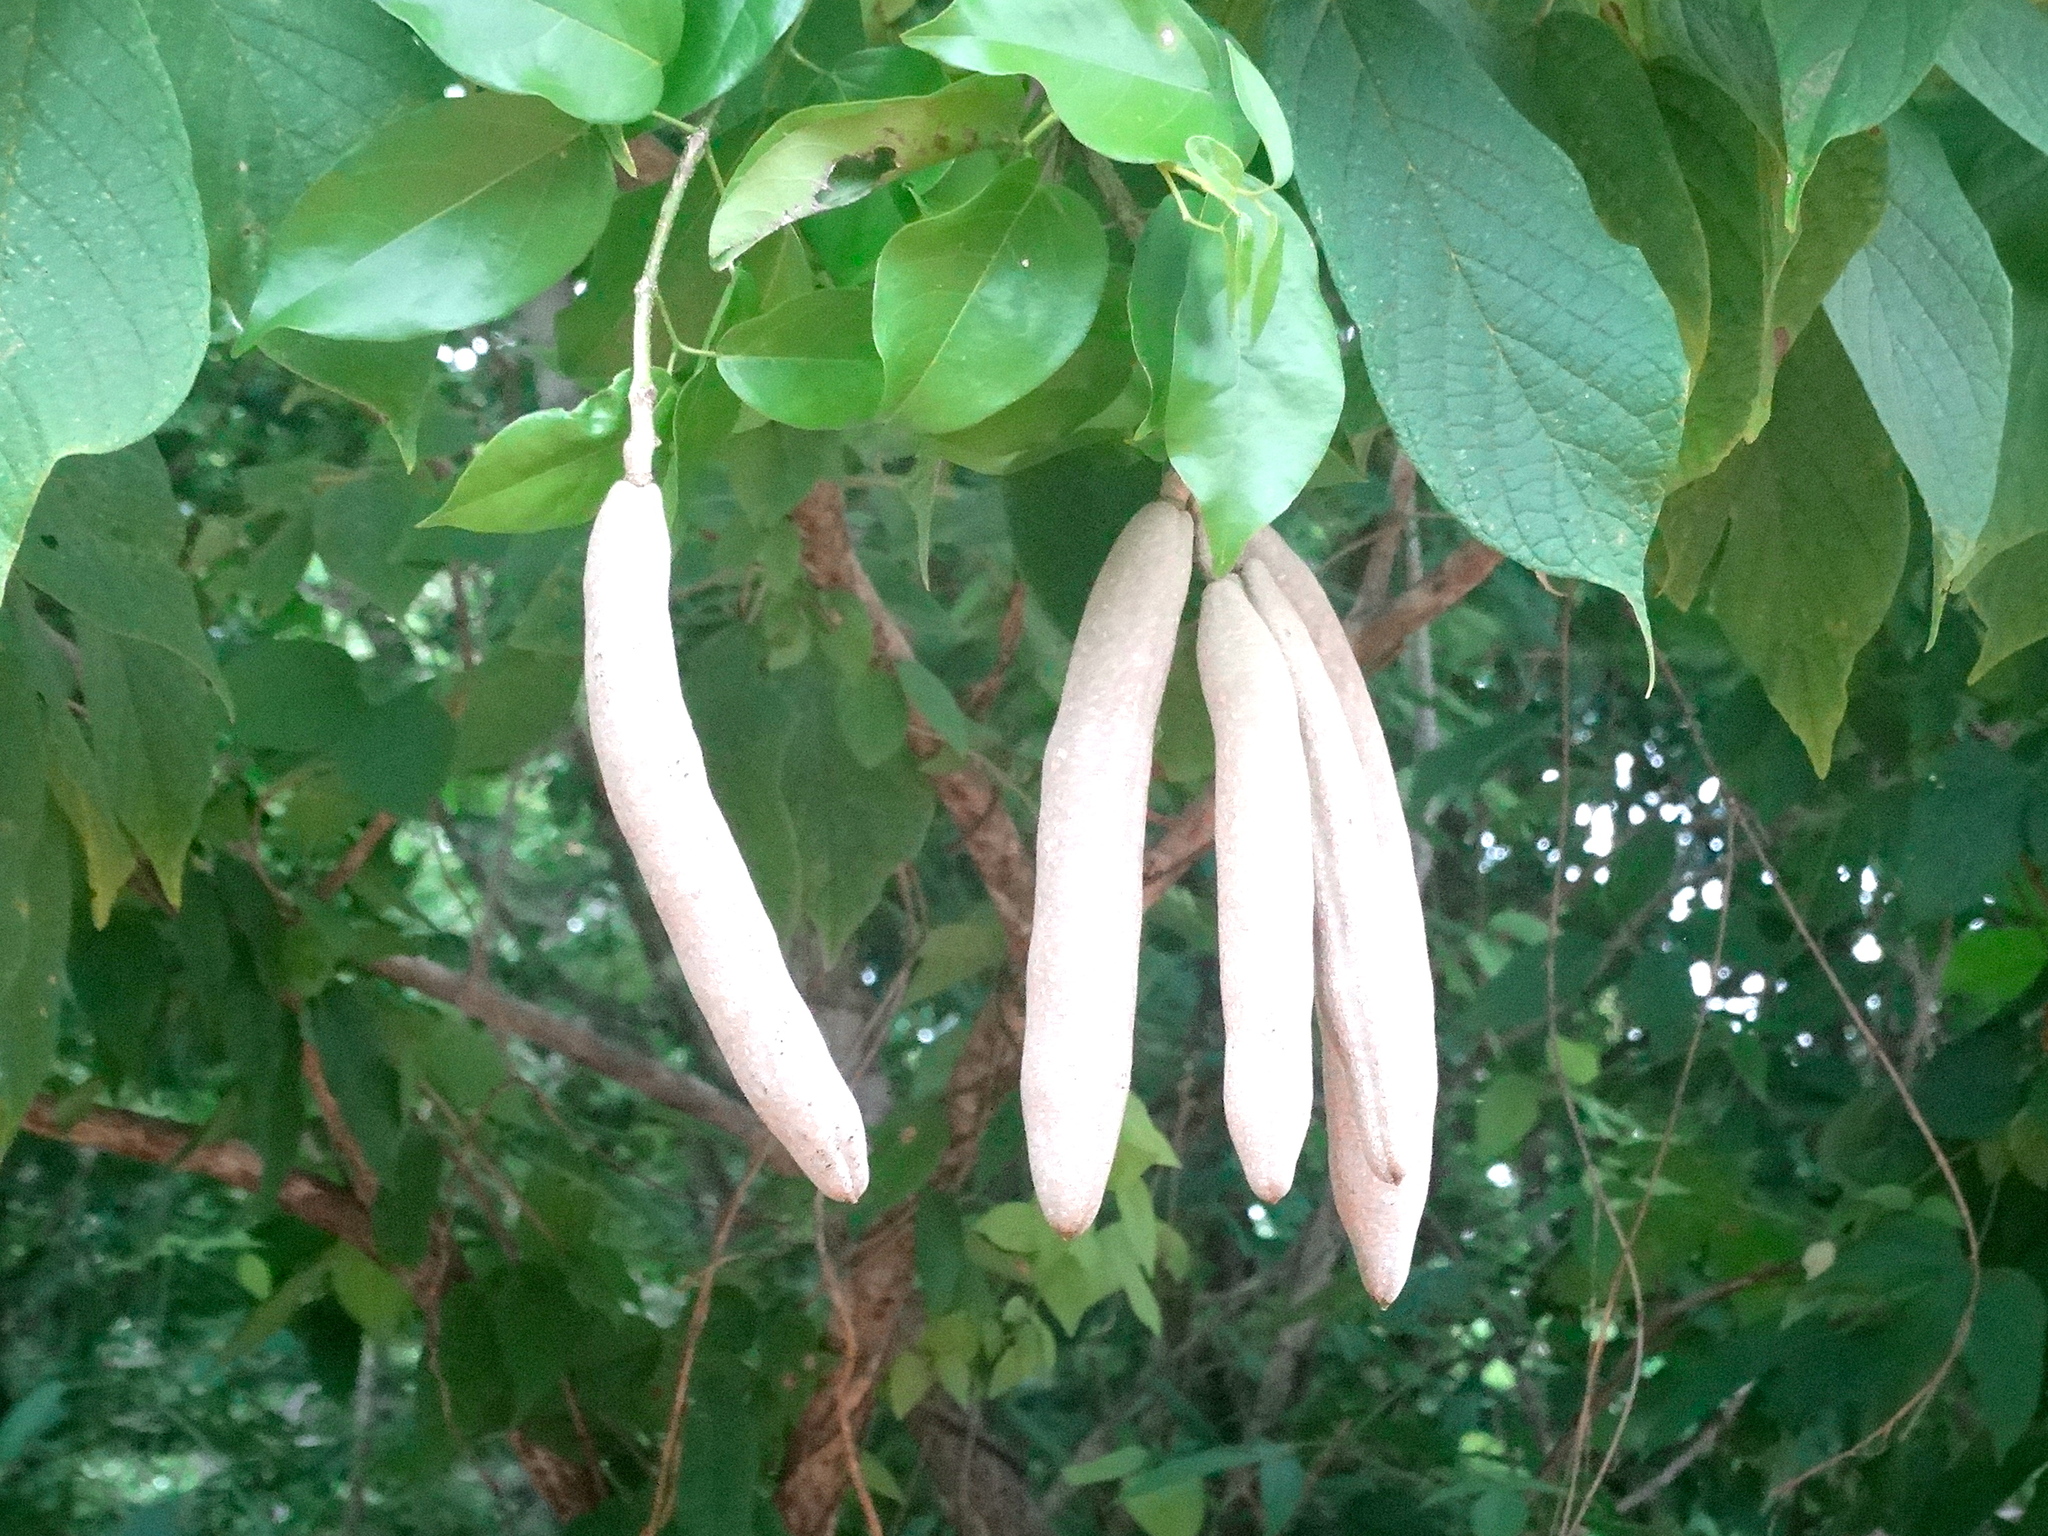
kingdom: Plantae
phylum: Tracheophyta
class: Magnoliopsida
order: Lamiales
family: Bignoniaceae
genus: Adenocalymma
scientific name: Adenocalymma inundatum
